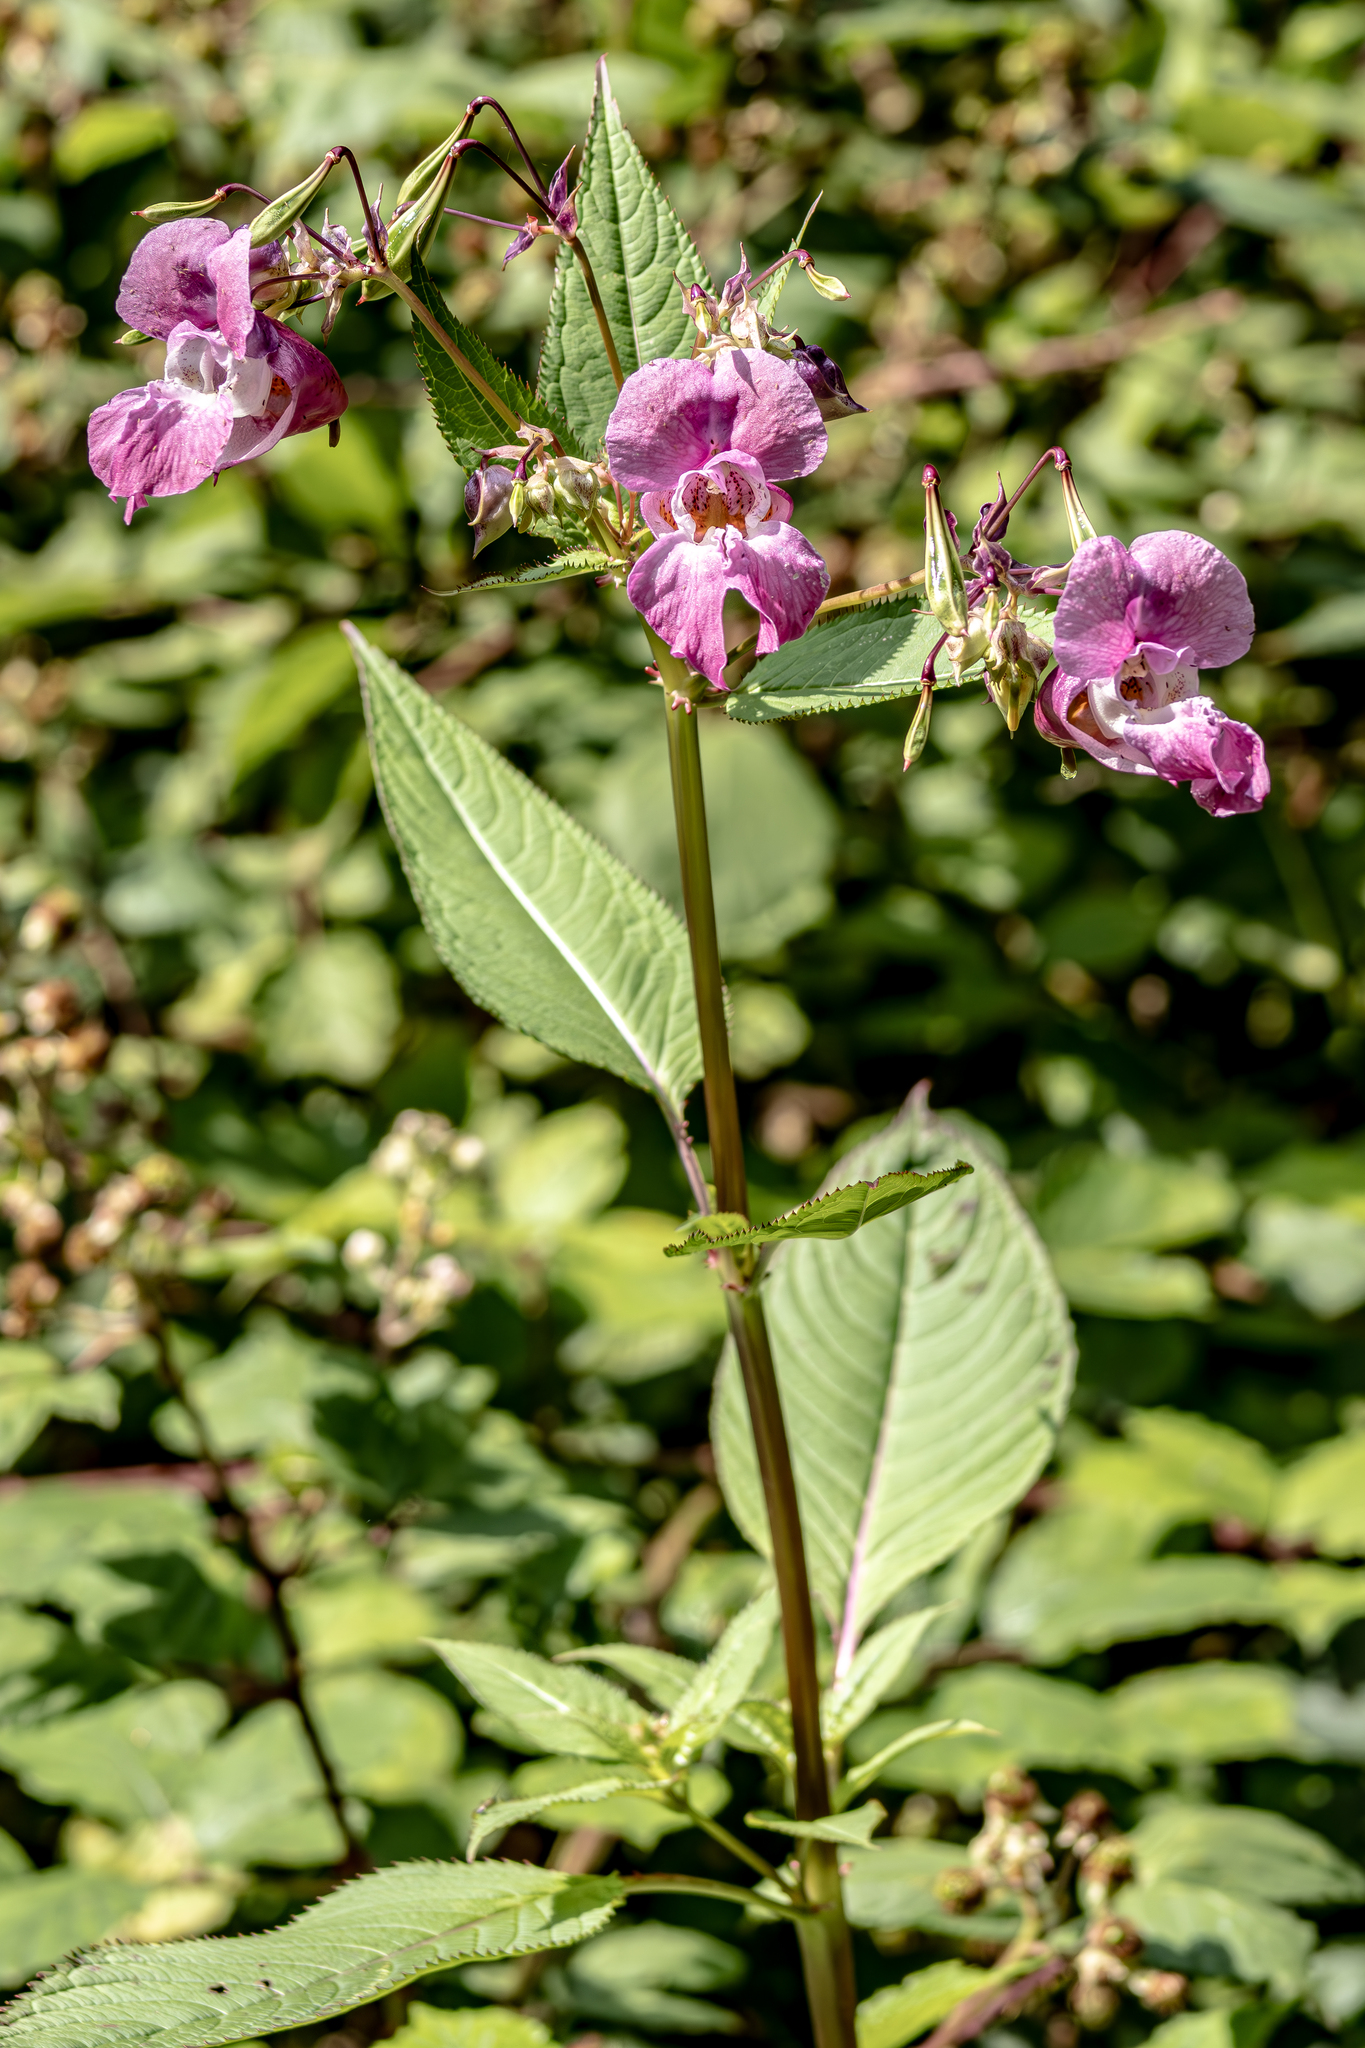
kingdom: Plantae
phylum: Tracheophyta
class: Magnoliopsida
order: Ericales
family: Balsaminaceae
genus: Impatiens
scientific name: Impatiens glandulifera
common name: Himalayan balsam
